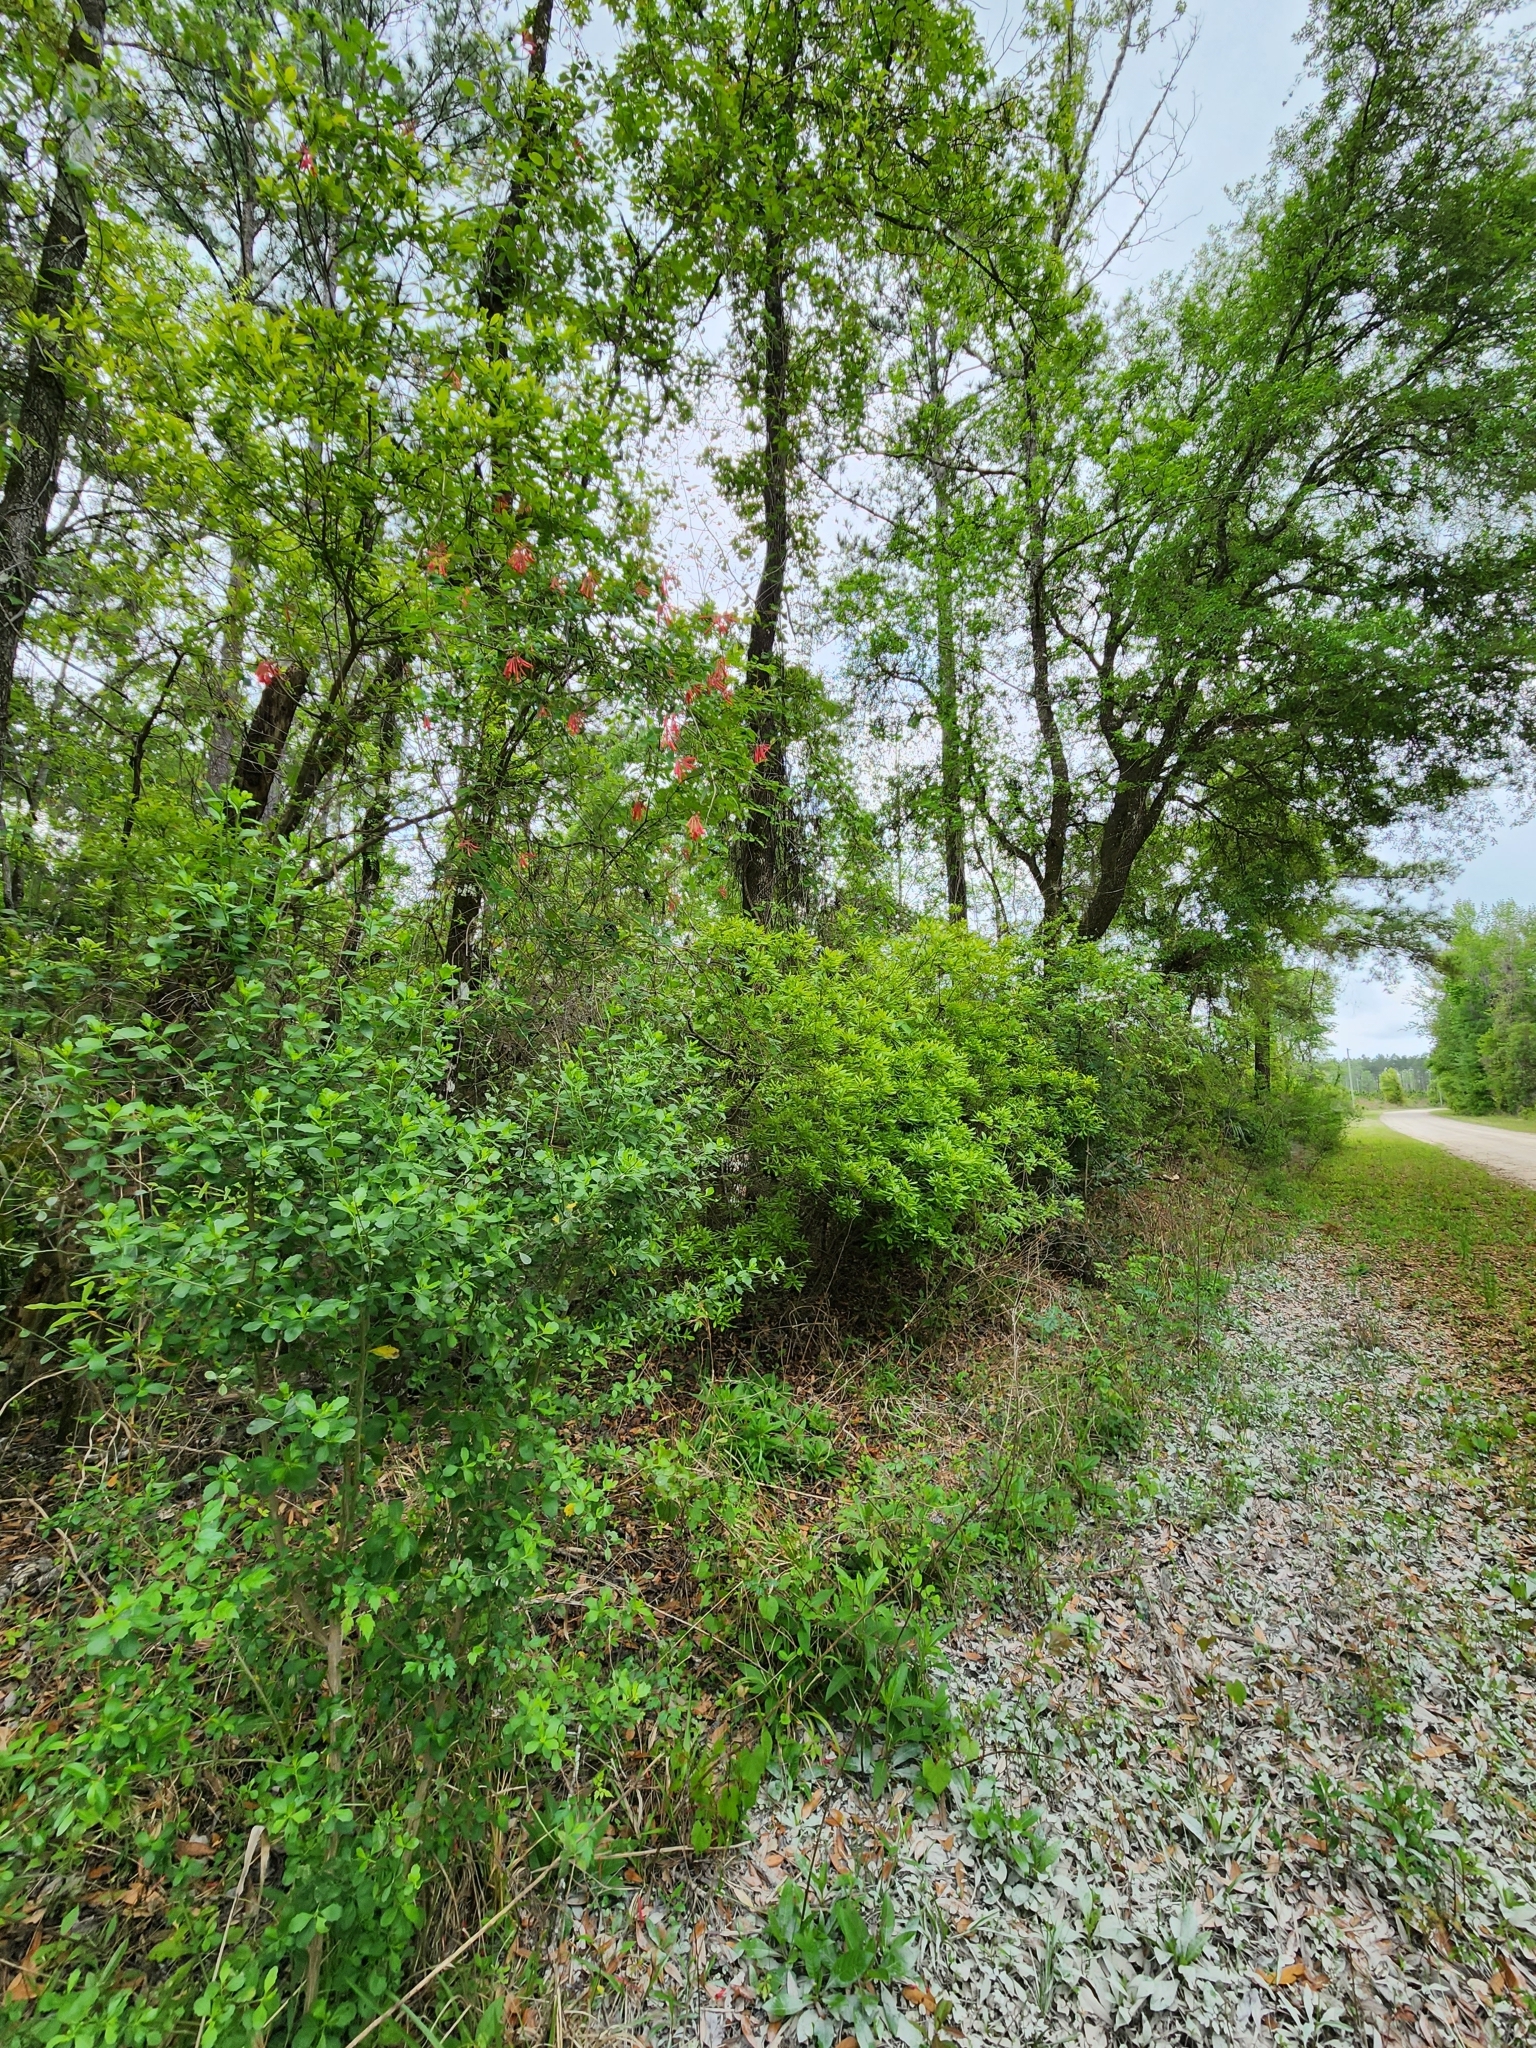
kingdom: Plantae
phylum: Tracheophyta
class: Magnoliopsida
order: Dipsacales
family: Caprifoliaceae
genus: Lonicera
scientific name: Lonicera sempervirens
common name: Coral honeysuckle
